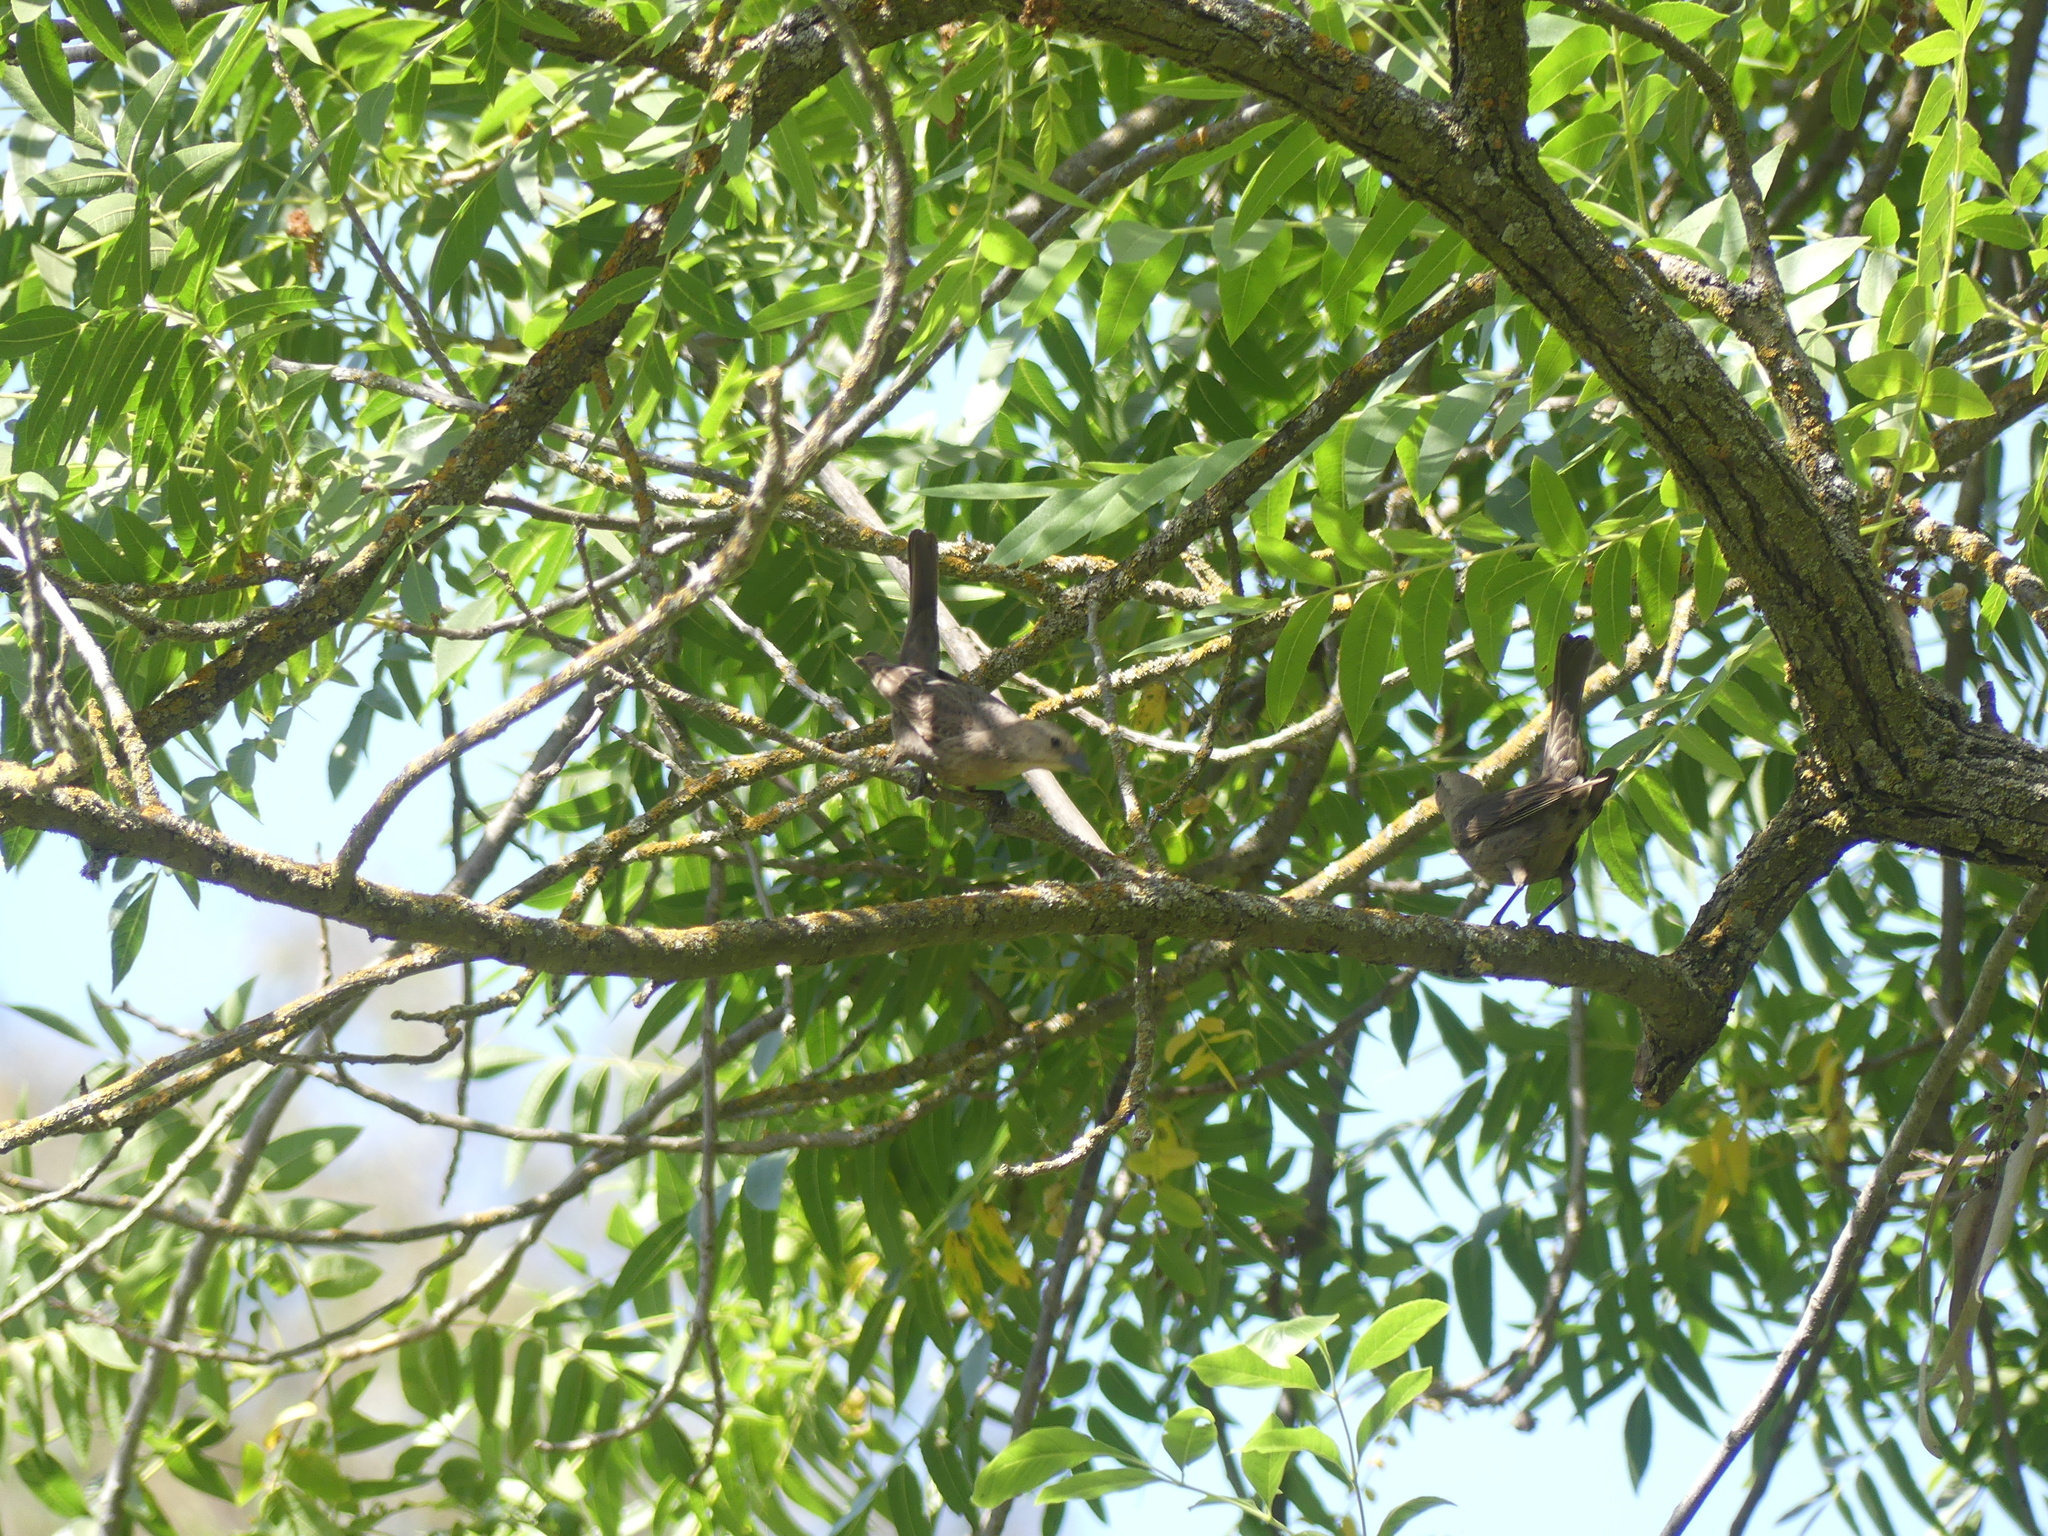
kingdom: Animalia
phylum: Chordata
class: Aves
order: Passeriformes
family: Icteridae
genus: Molothrus
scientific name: Molothrus ater
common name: Brown-headed cowbird
